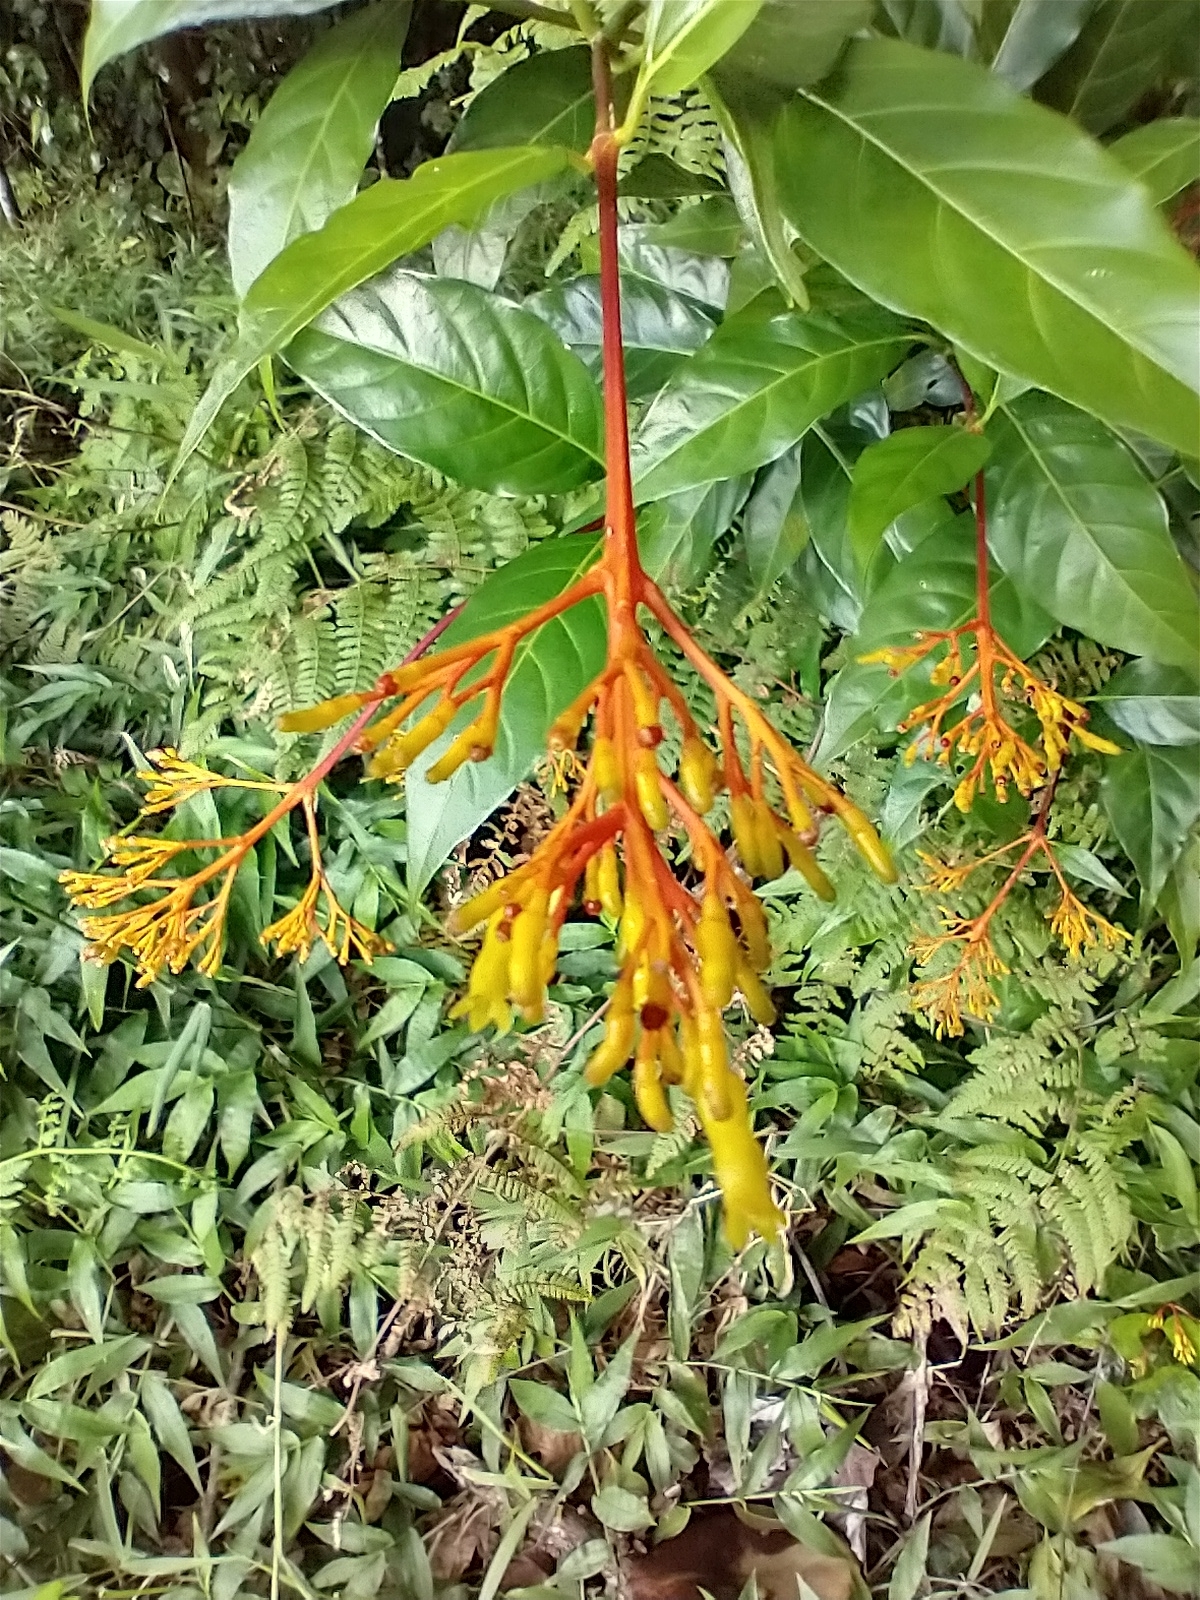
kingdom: Plantae
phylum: Tracheophyta
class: Magnoliopsida
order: Gentianales
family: Rubiaceae
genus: Palicourea
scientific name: Palicourea crocea
